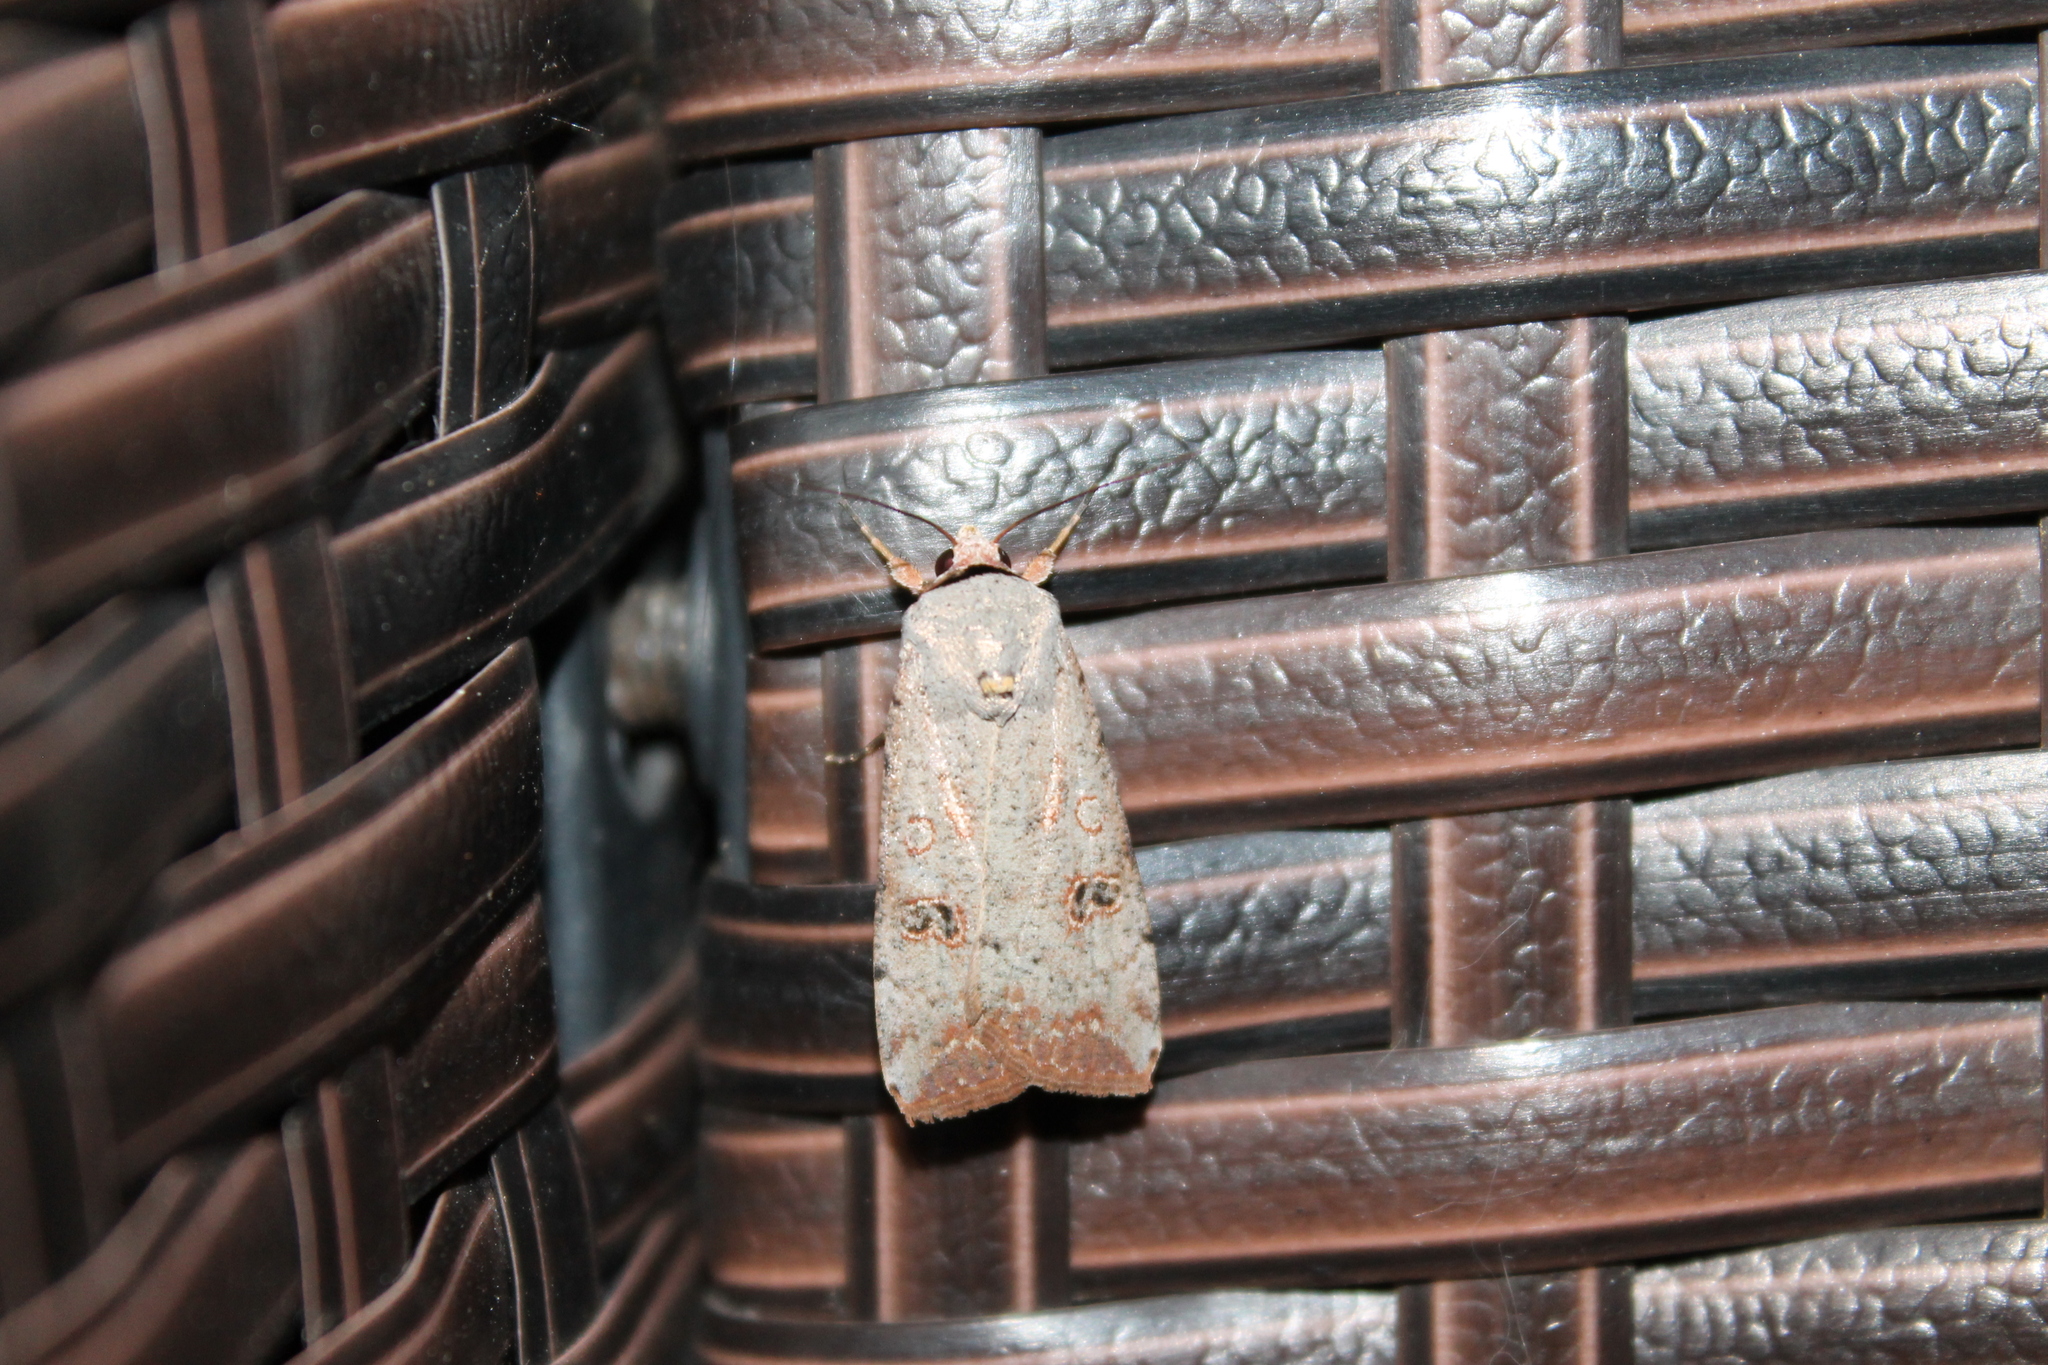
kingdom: Animalia
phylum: Arthropoda
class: Insecta
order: Lepidoptera
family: Noctuidae
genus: Anicla
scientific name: Anicla infecta
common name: Green cutworm
